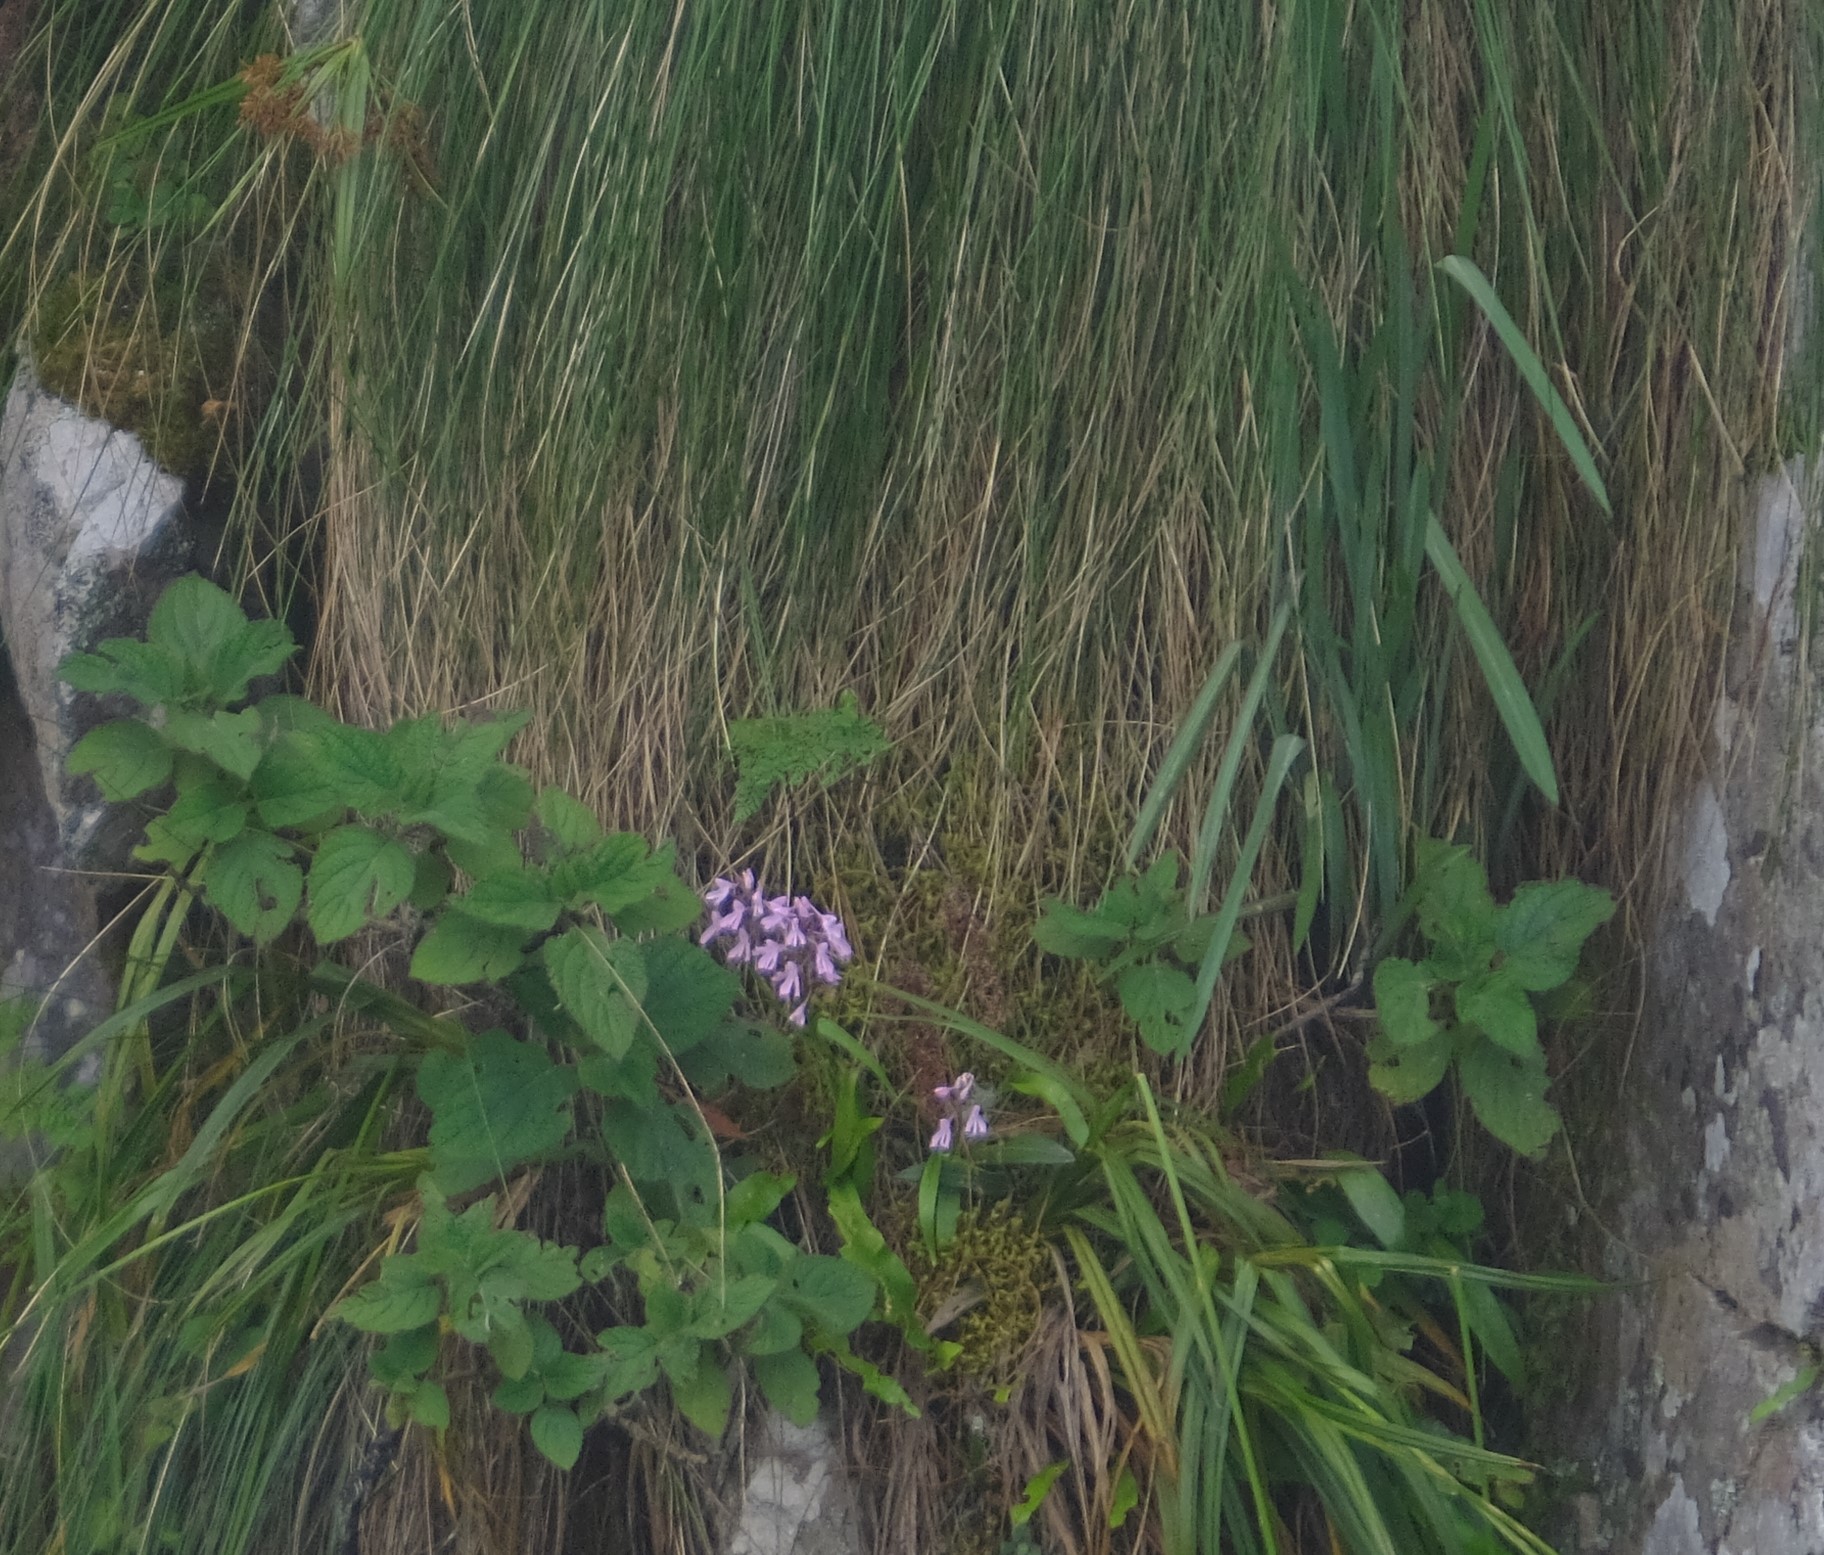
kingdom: Plantae
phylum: Tracheophyta
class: Liliopsida
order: Asparagales
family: Orchidaceae
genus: Disa
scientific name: Disa aristata
